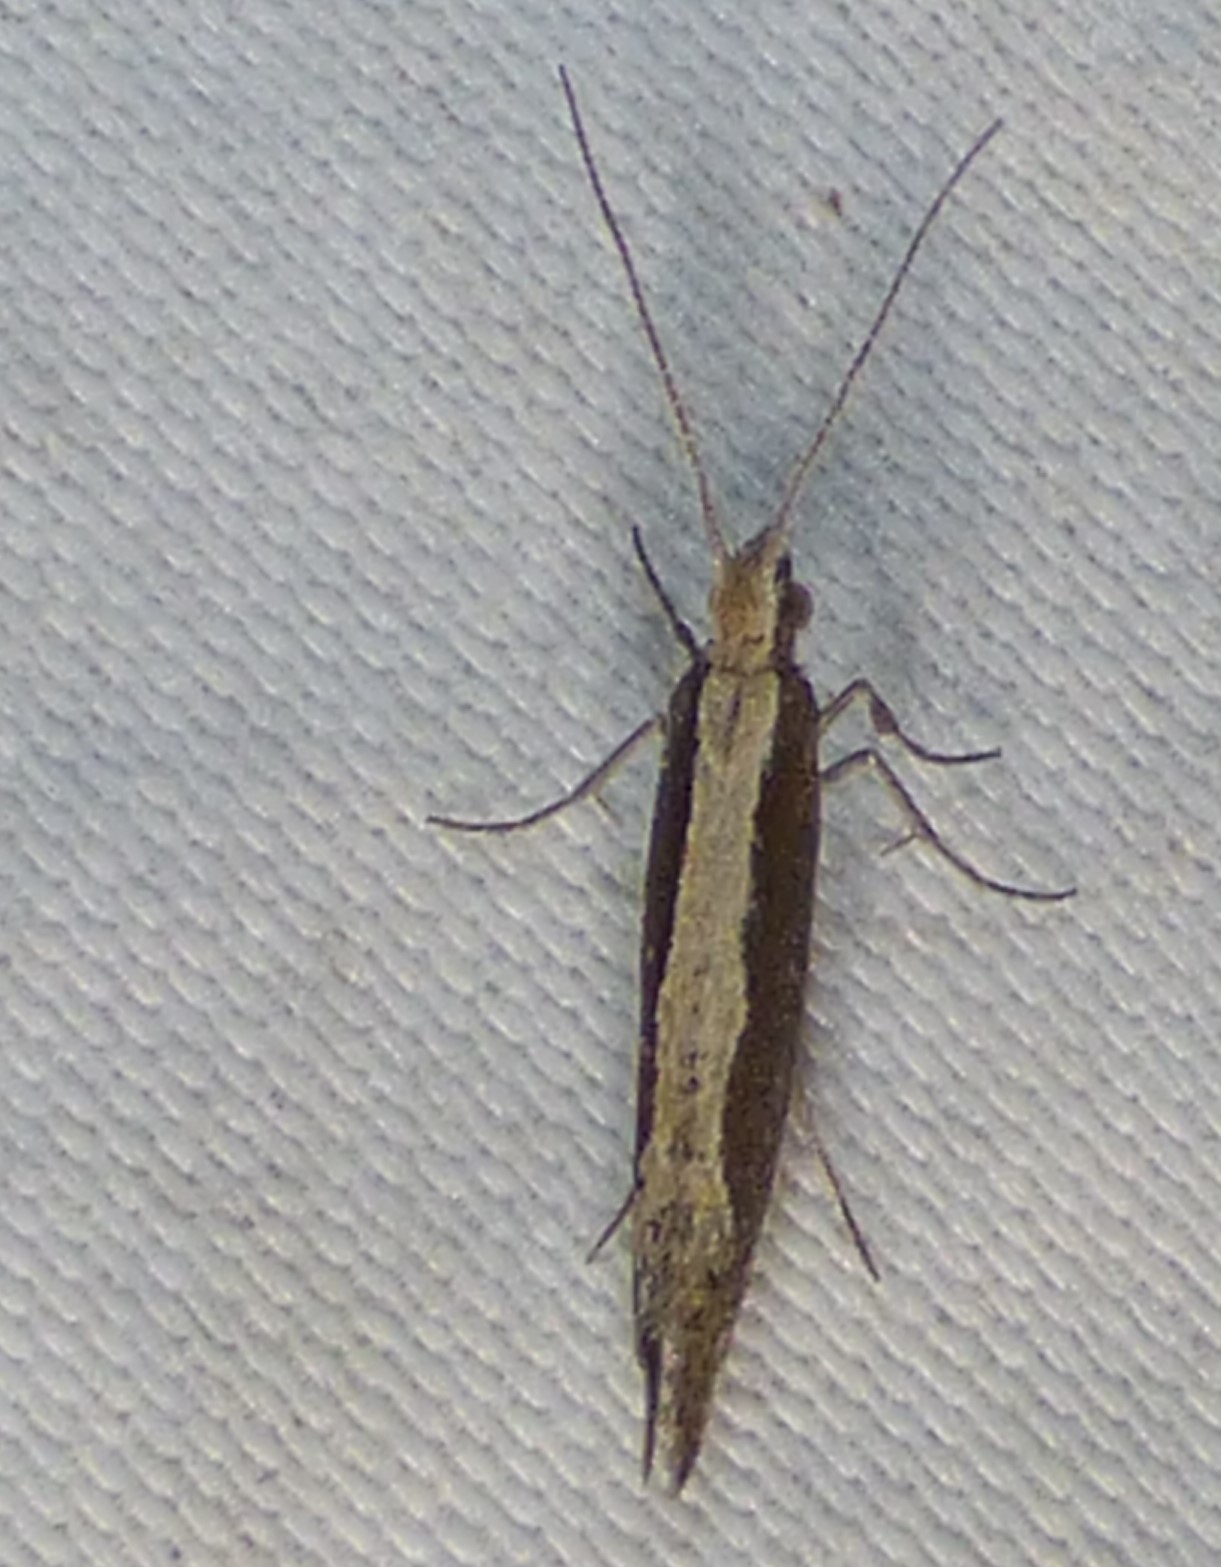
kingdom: Animalia
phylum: Arthropoda
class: Insecta
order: Lepidoptera
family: Plutellidae
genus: Plutella
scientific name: Plutella xylostella
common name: Diamond-back moth
